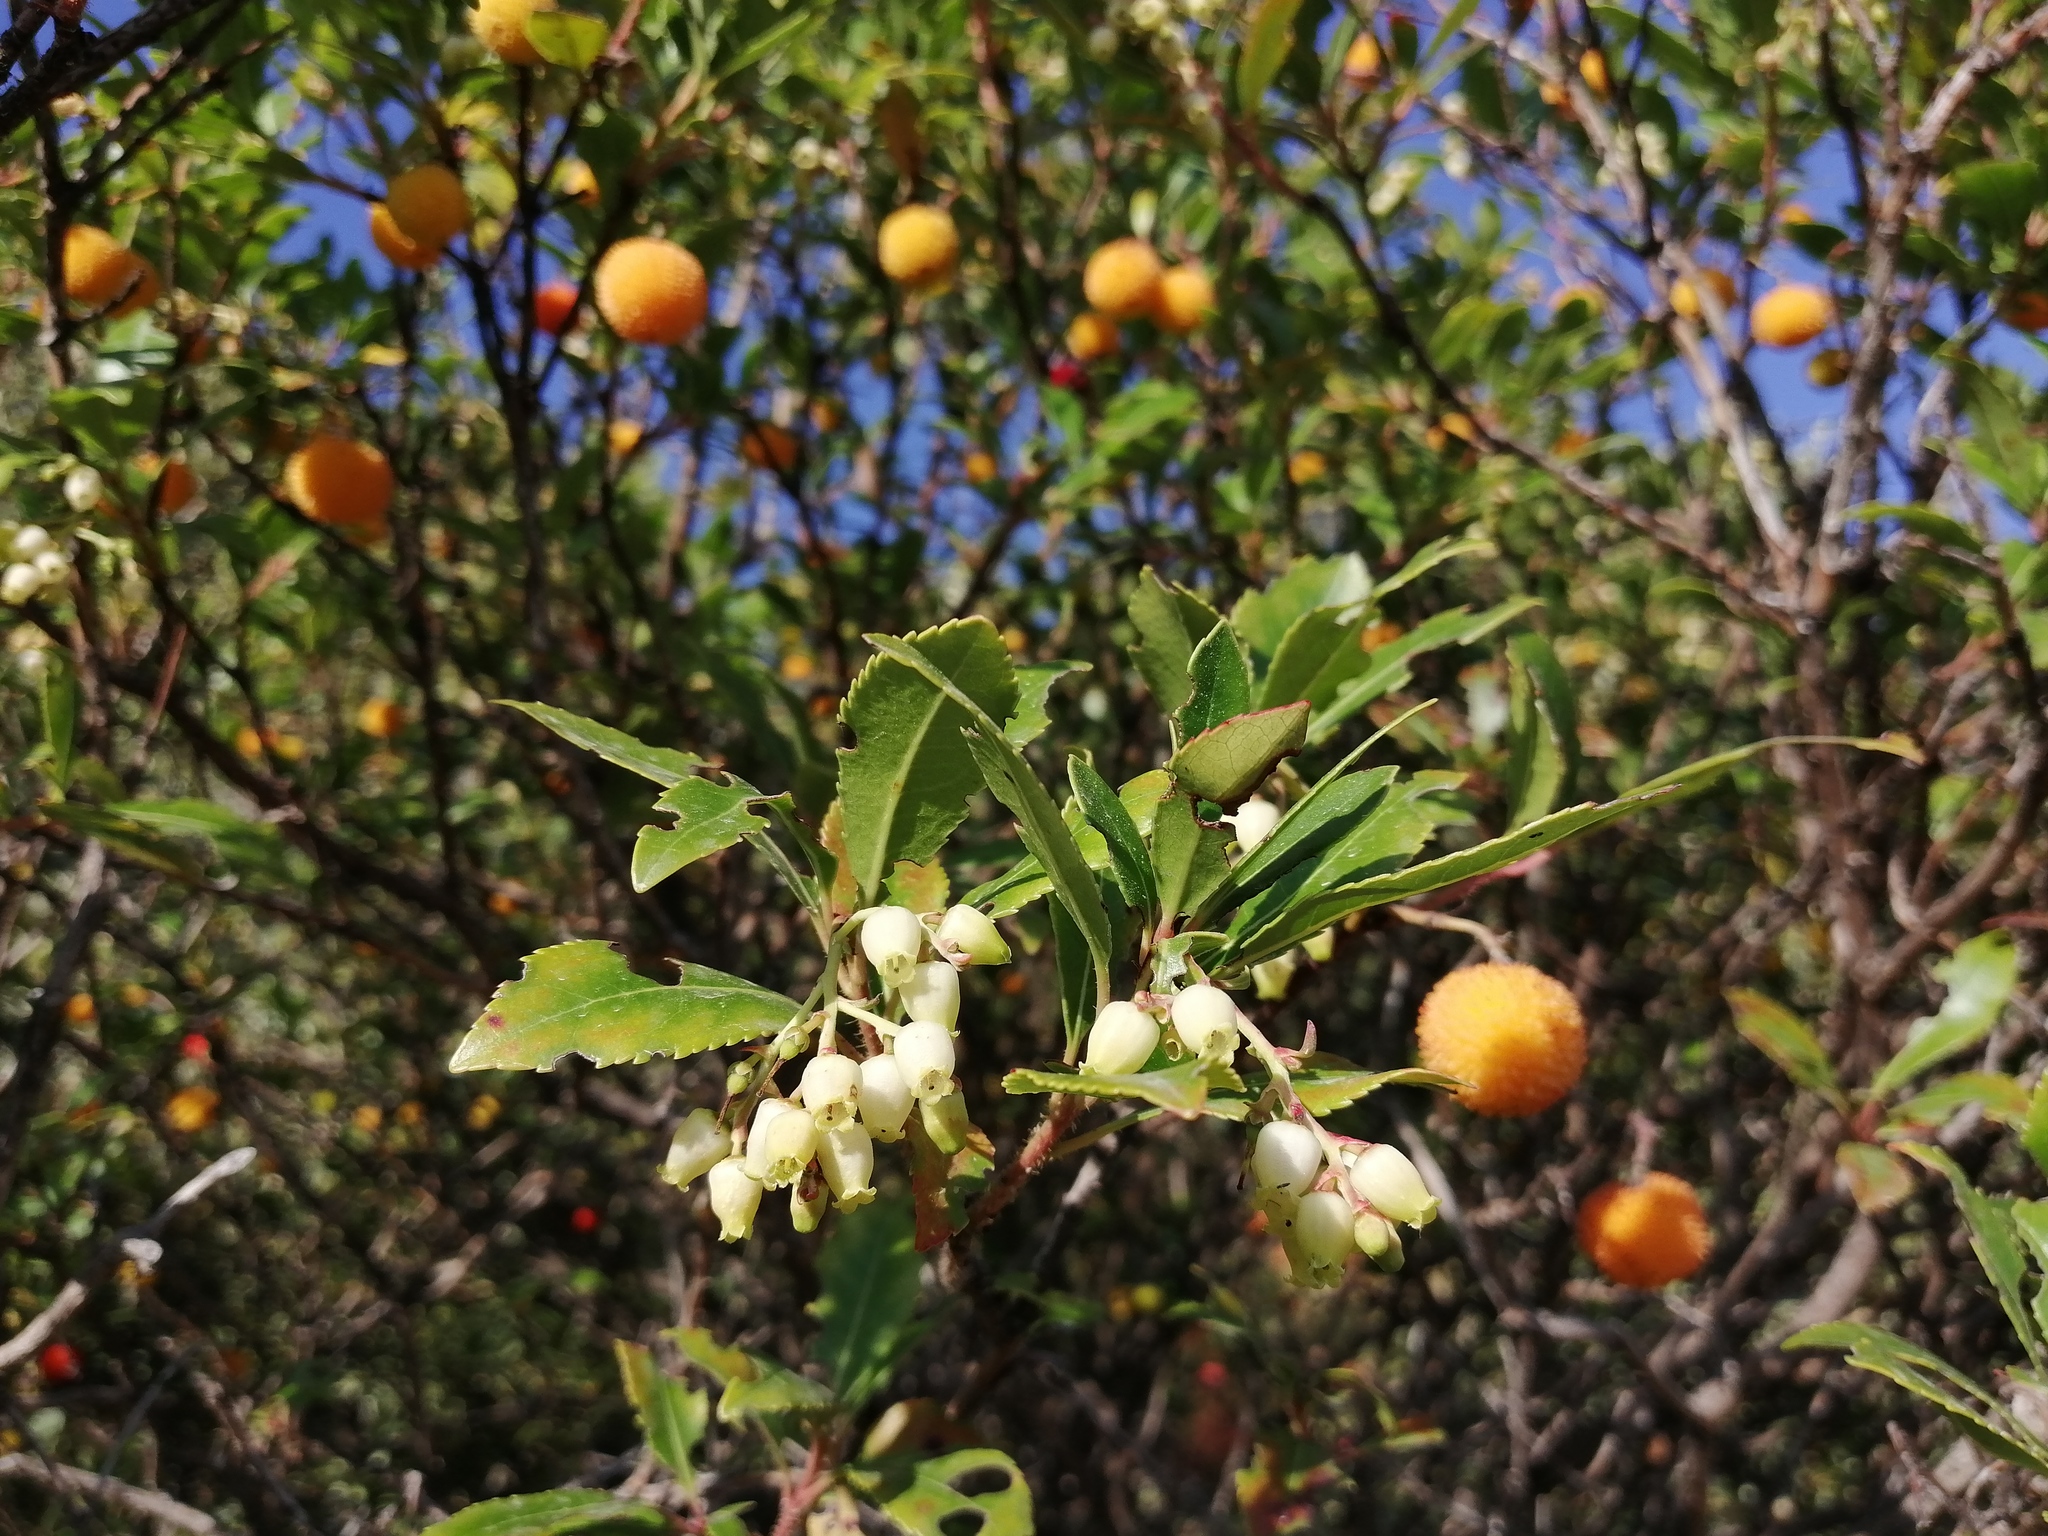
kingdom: Plantae
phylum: Tracheophyta
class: Magnoliopsida
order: Ericales
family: Ericaceae
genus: Arbutus
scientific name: Arbutus unedo
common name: Strawberry-tree
